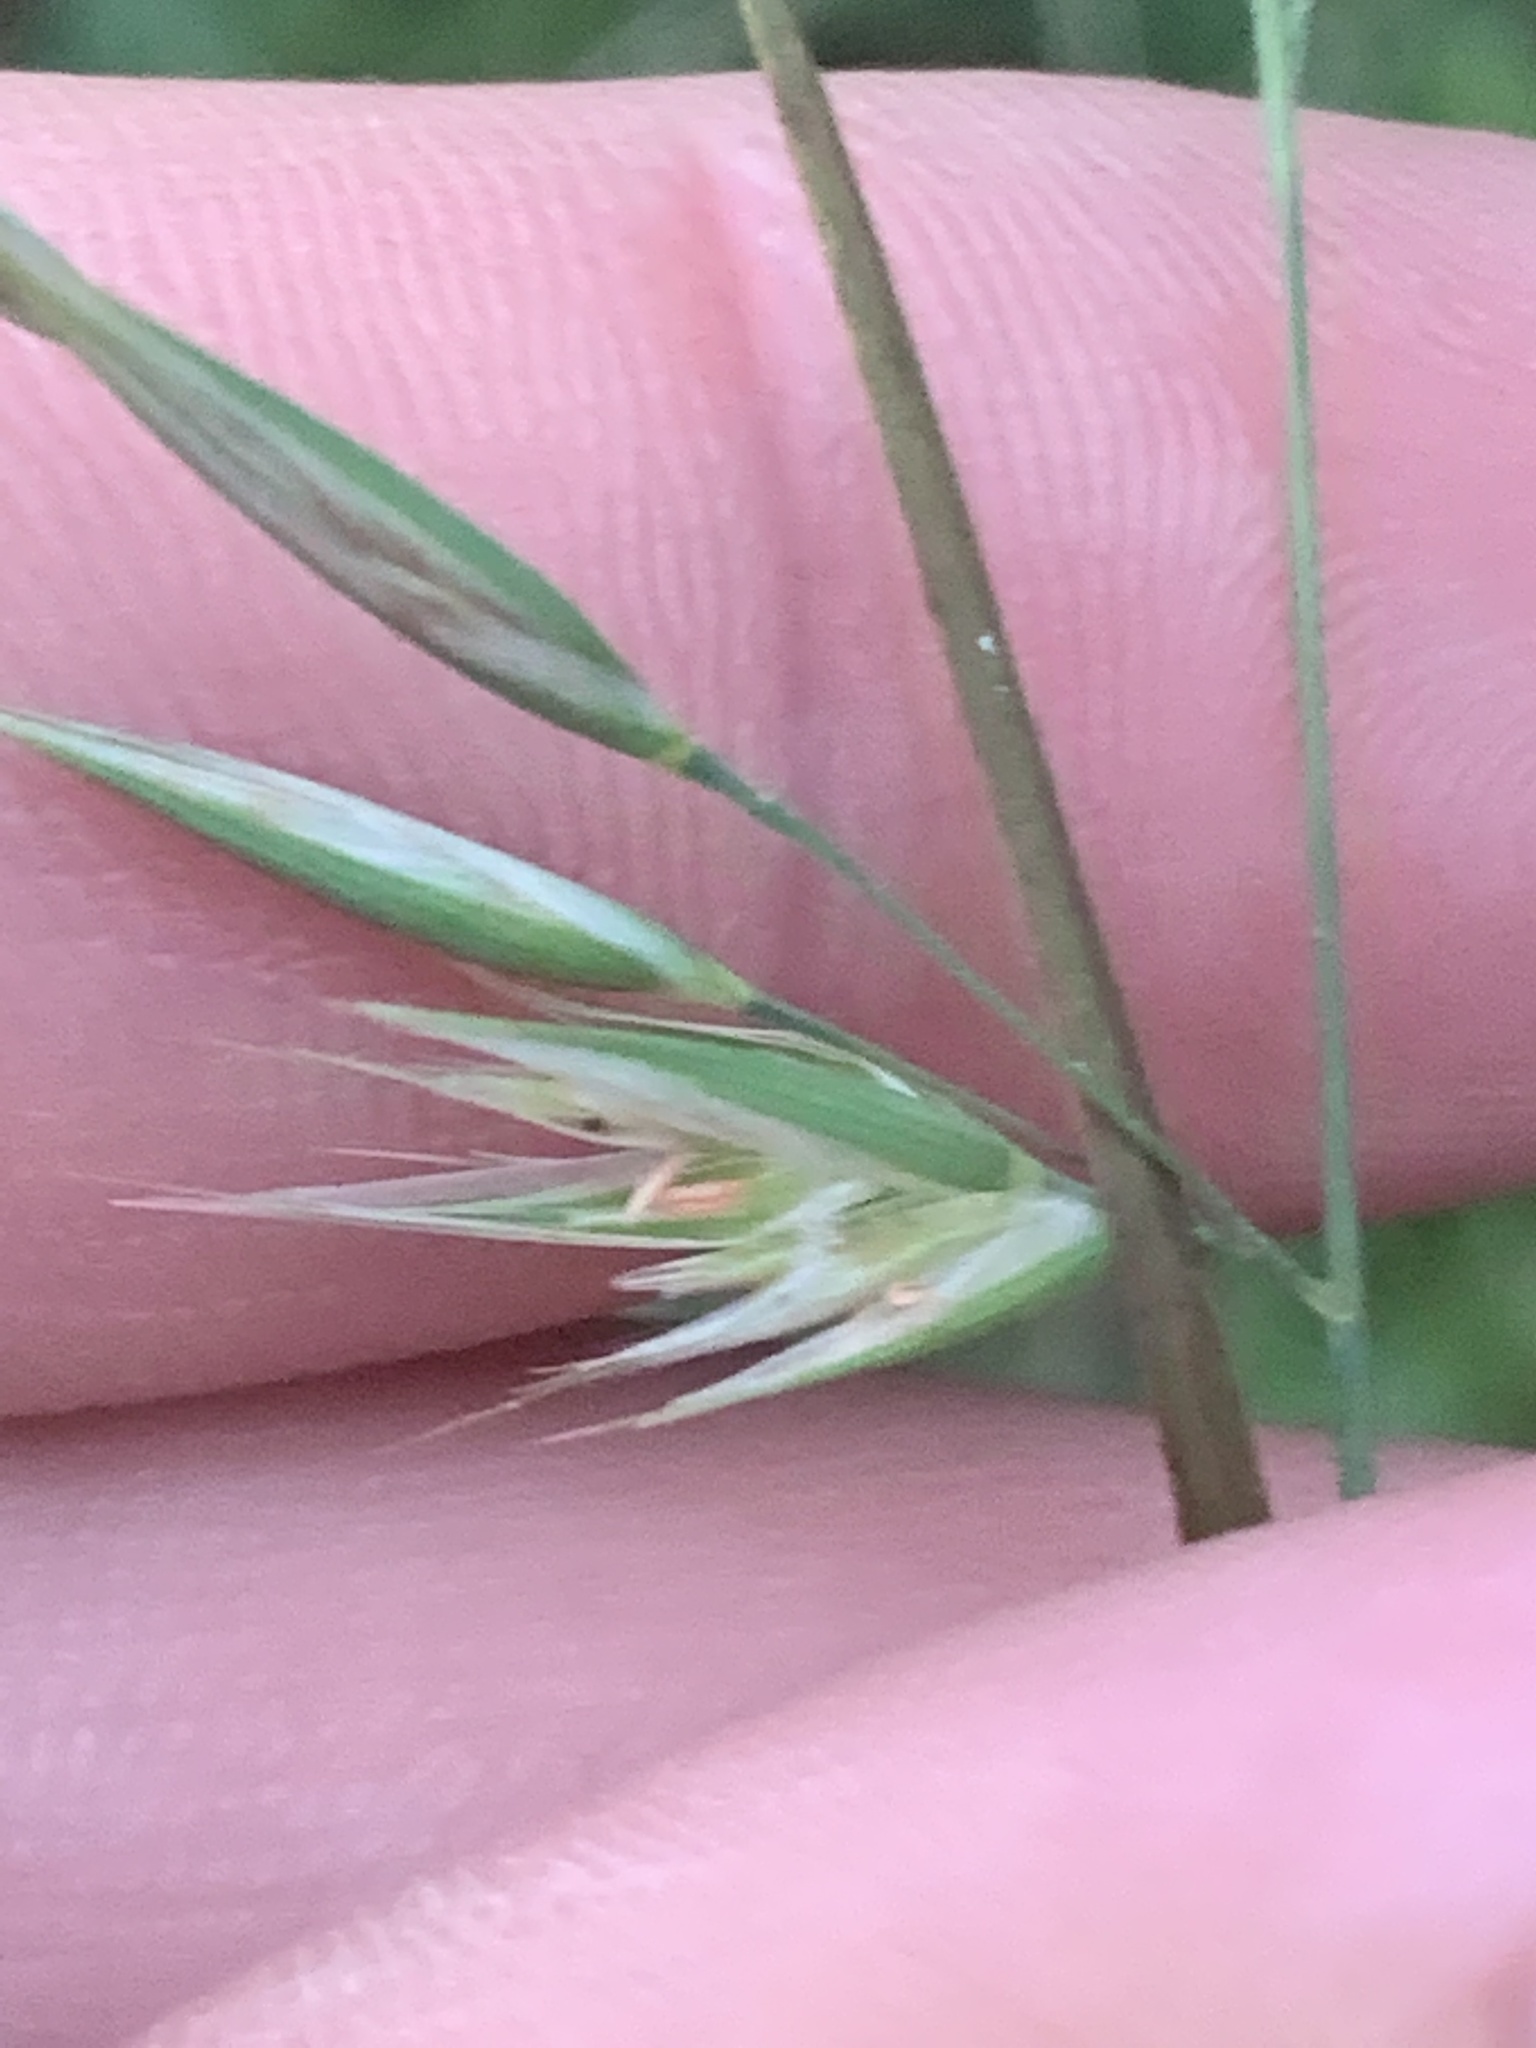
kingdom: Plantae
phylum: Tracheophyta
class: Liliopsida
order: Poales
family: Poaceae
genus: Rytidosperma
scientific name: Rytidosperma
